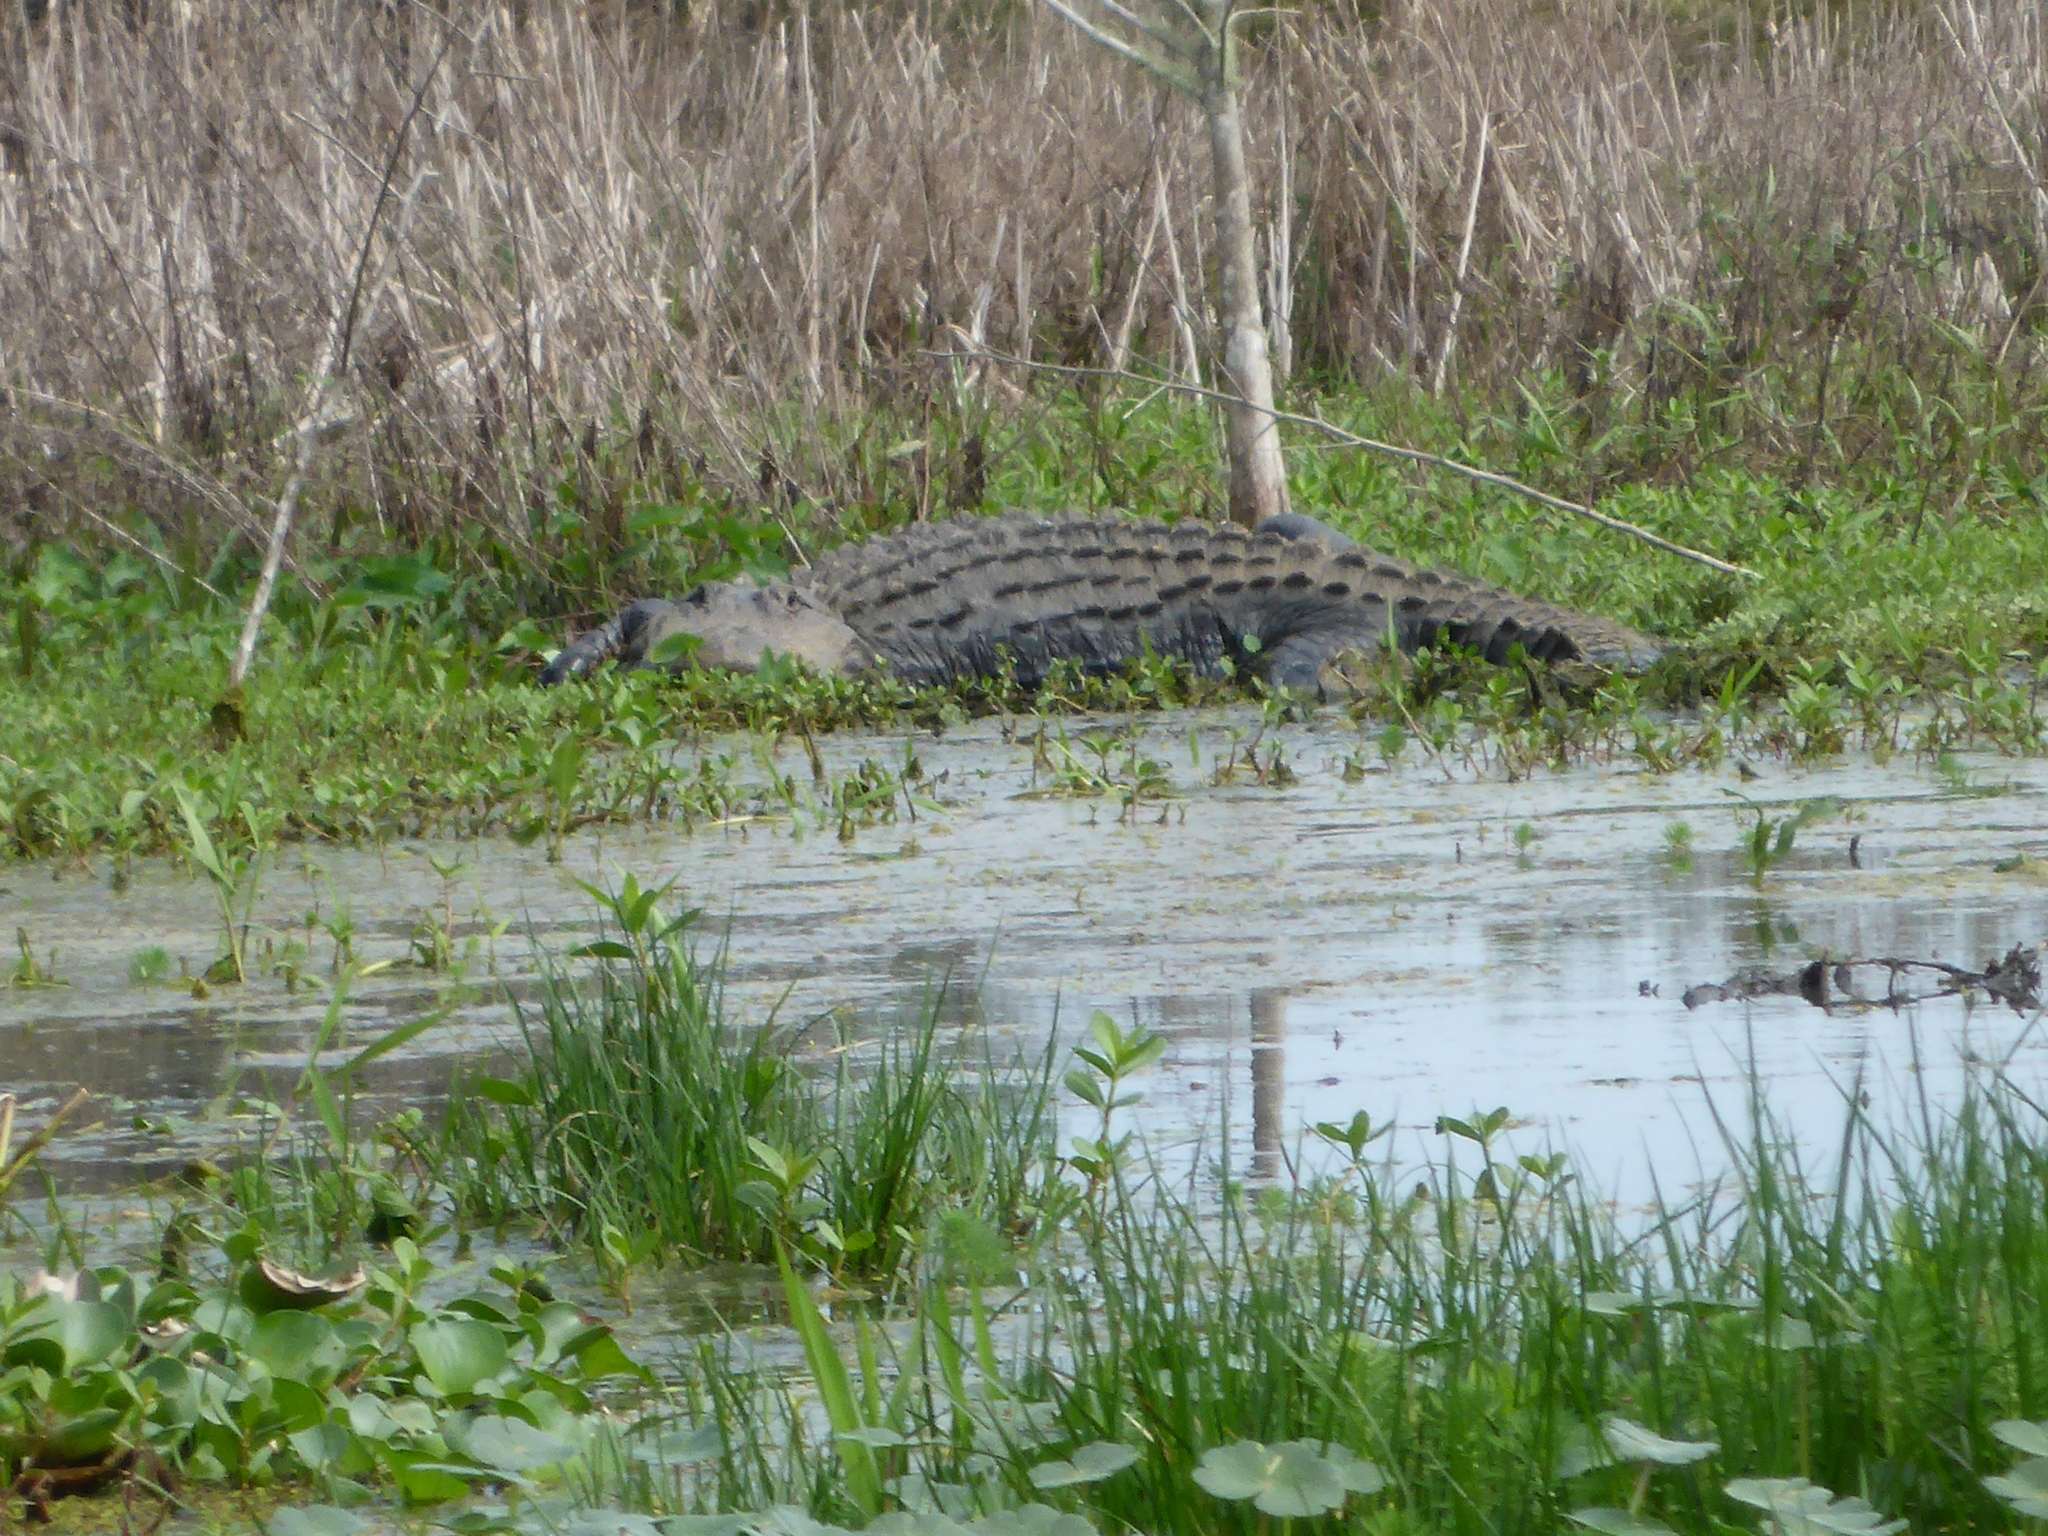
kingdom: Animalia
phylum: Chordata
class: Crocodylia
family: Alligatoridae
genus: Alligator
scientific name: Alligator mississippiensis
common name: American alligator
